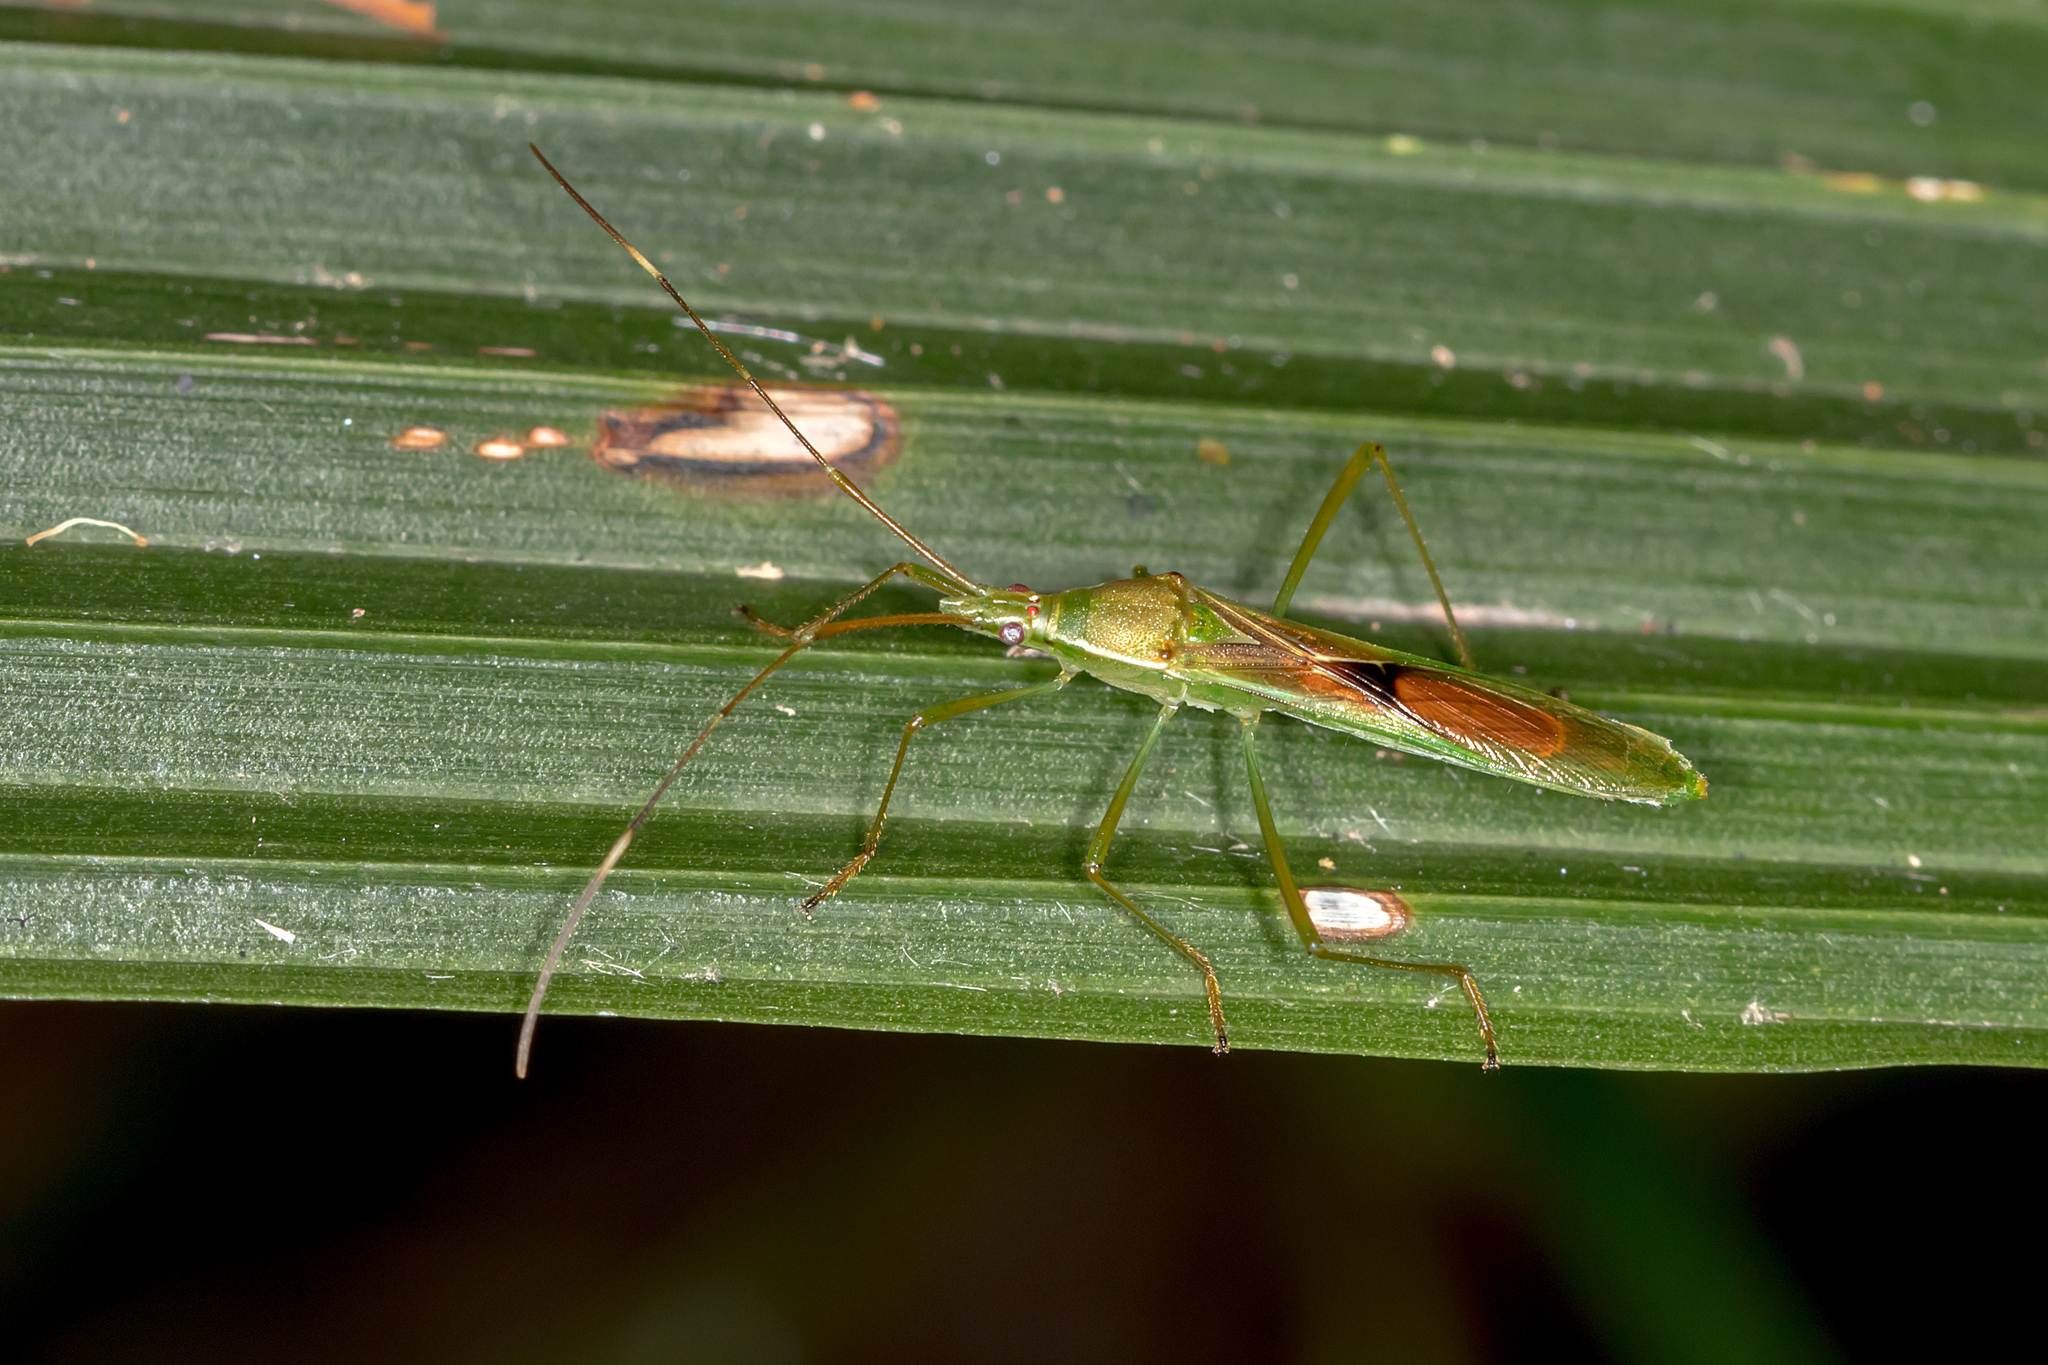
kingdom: Animalia
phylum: Arthropoda
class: Insecta
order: Hemiptera
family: Alydidae
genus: Leptocorisa
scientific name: Leptocorisa acuta
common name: Gandhi bug
